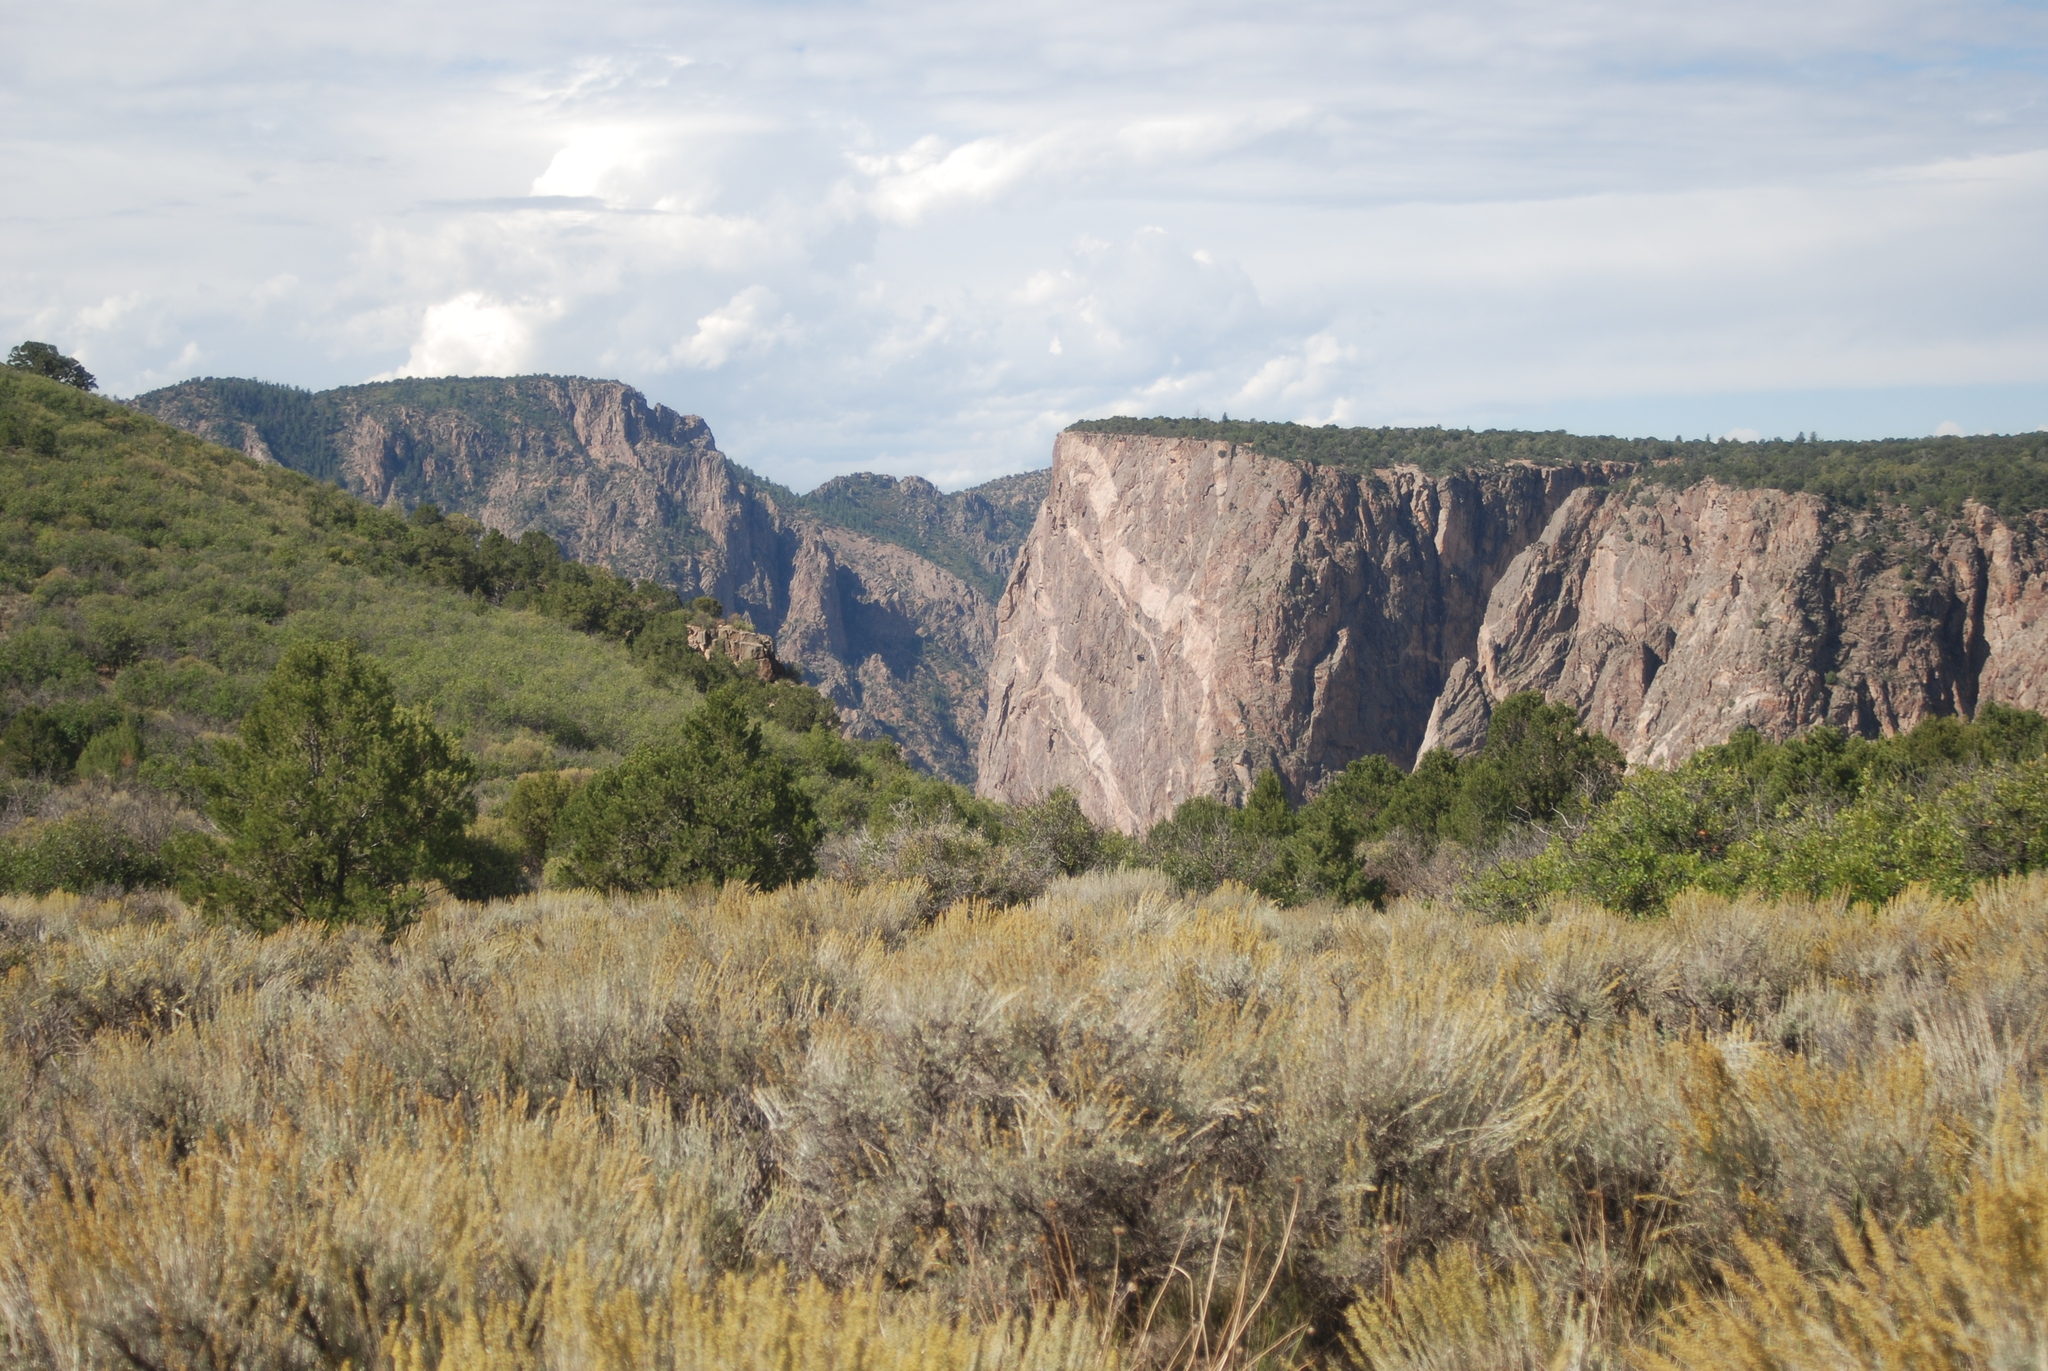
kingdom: Plantae
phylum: Tracheophyta
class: Magnoliopsida
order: Asterales
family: Asteraceae
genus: Artemisia
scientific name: Artemisia tridentata
